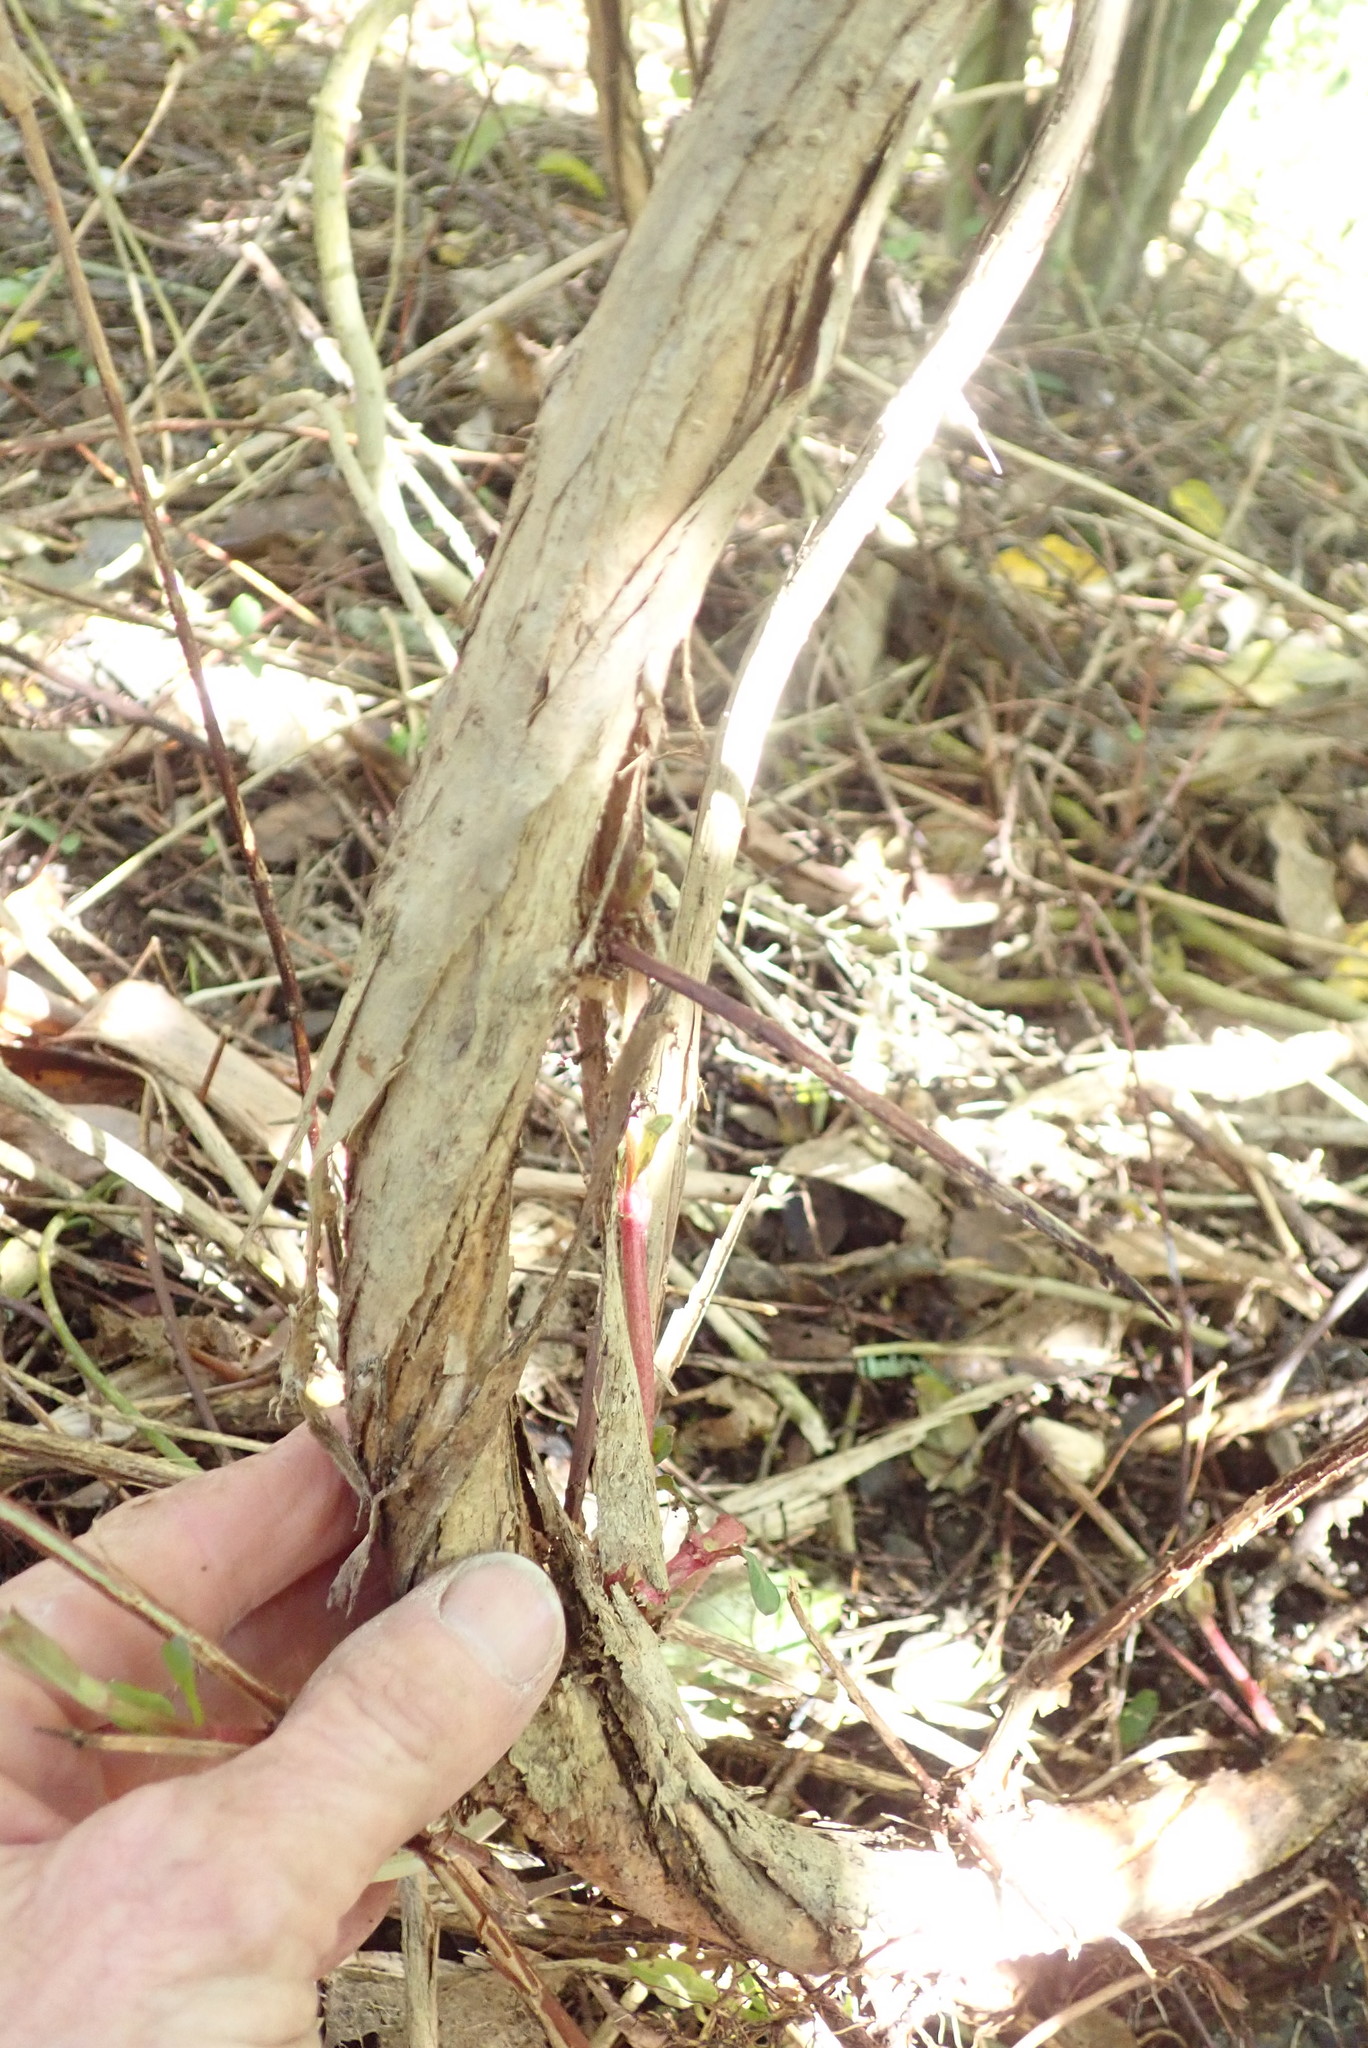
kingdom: Plantae
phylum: Tracheophyta
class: Magnoliopsida
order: Dipsacales
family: Caprifoliaceae
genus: Lonicera
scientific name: Lonicera japonica
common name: Japanese honeysuckle
